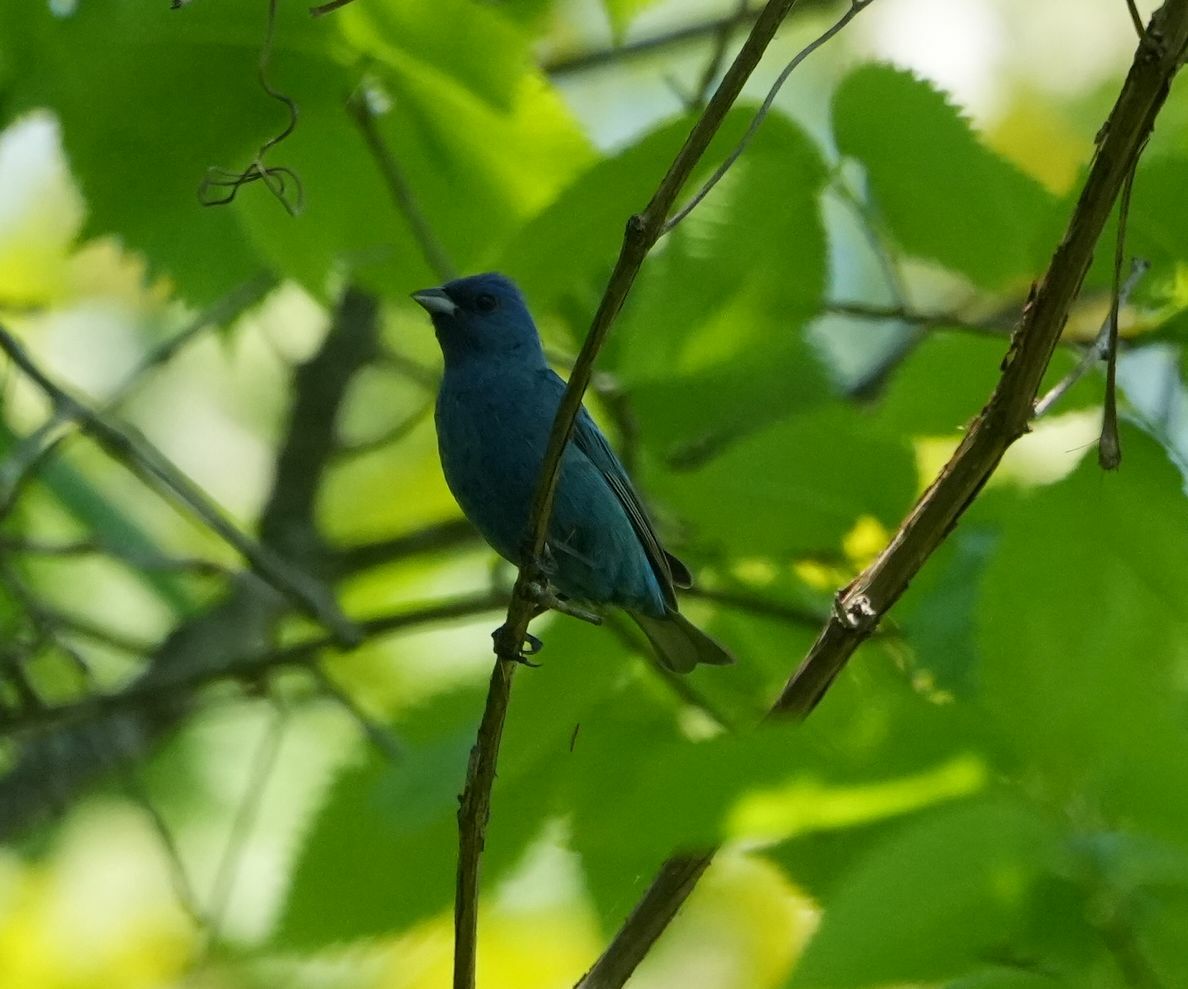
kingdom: Animalia
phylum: Chordata
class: Aves
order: Passeriformes
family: Cardinalidae
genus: Passerina
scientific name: Passerina cyanea
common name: Indigo bunting
